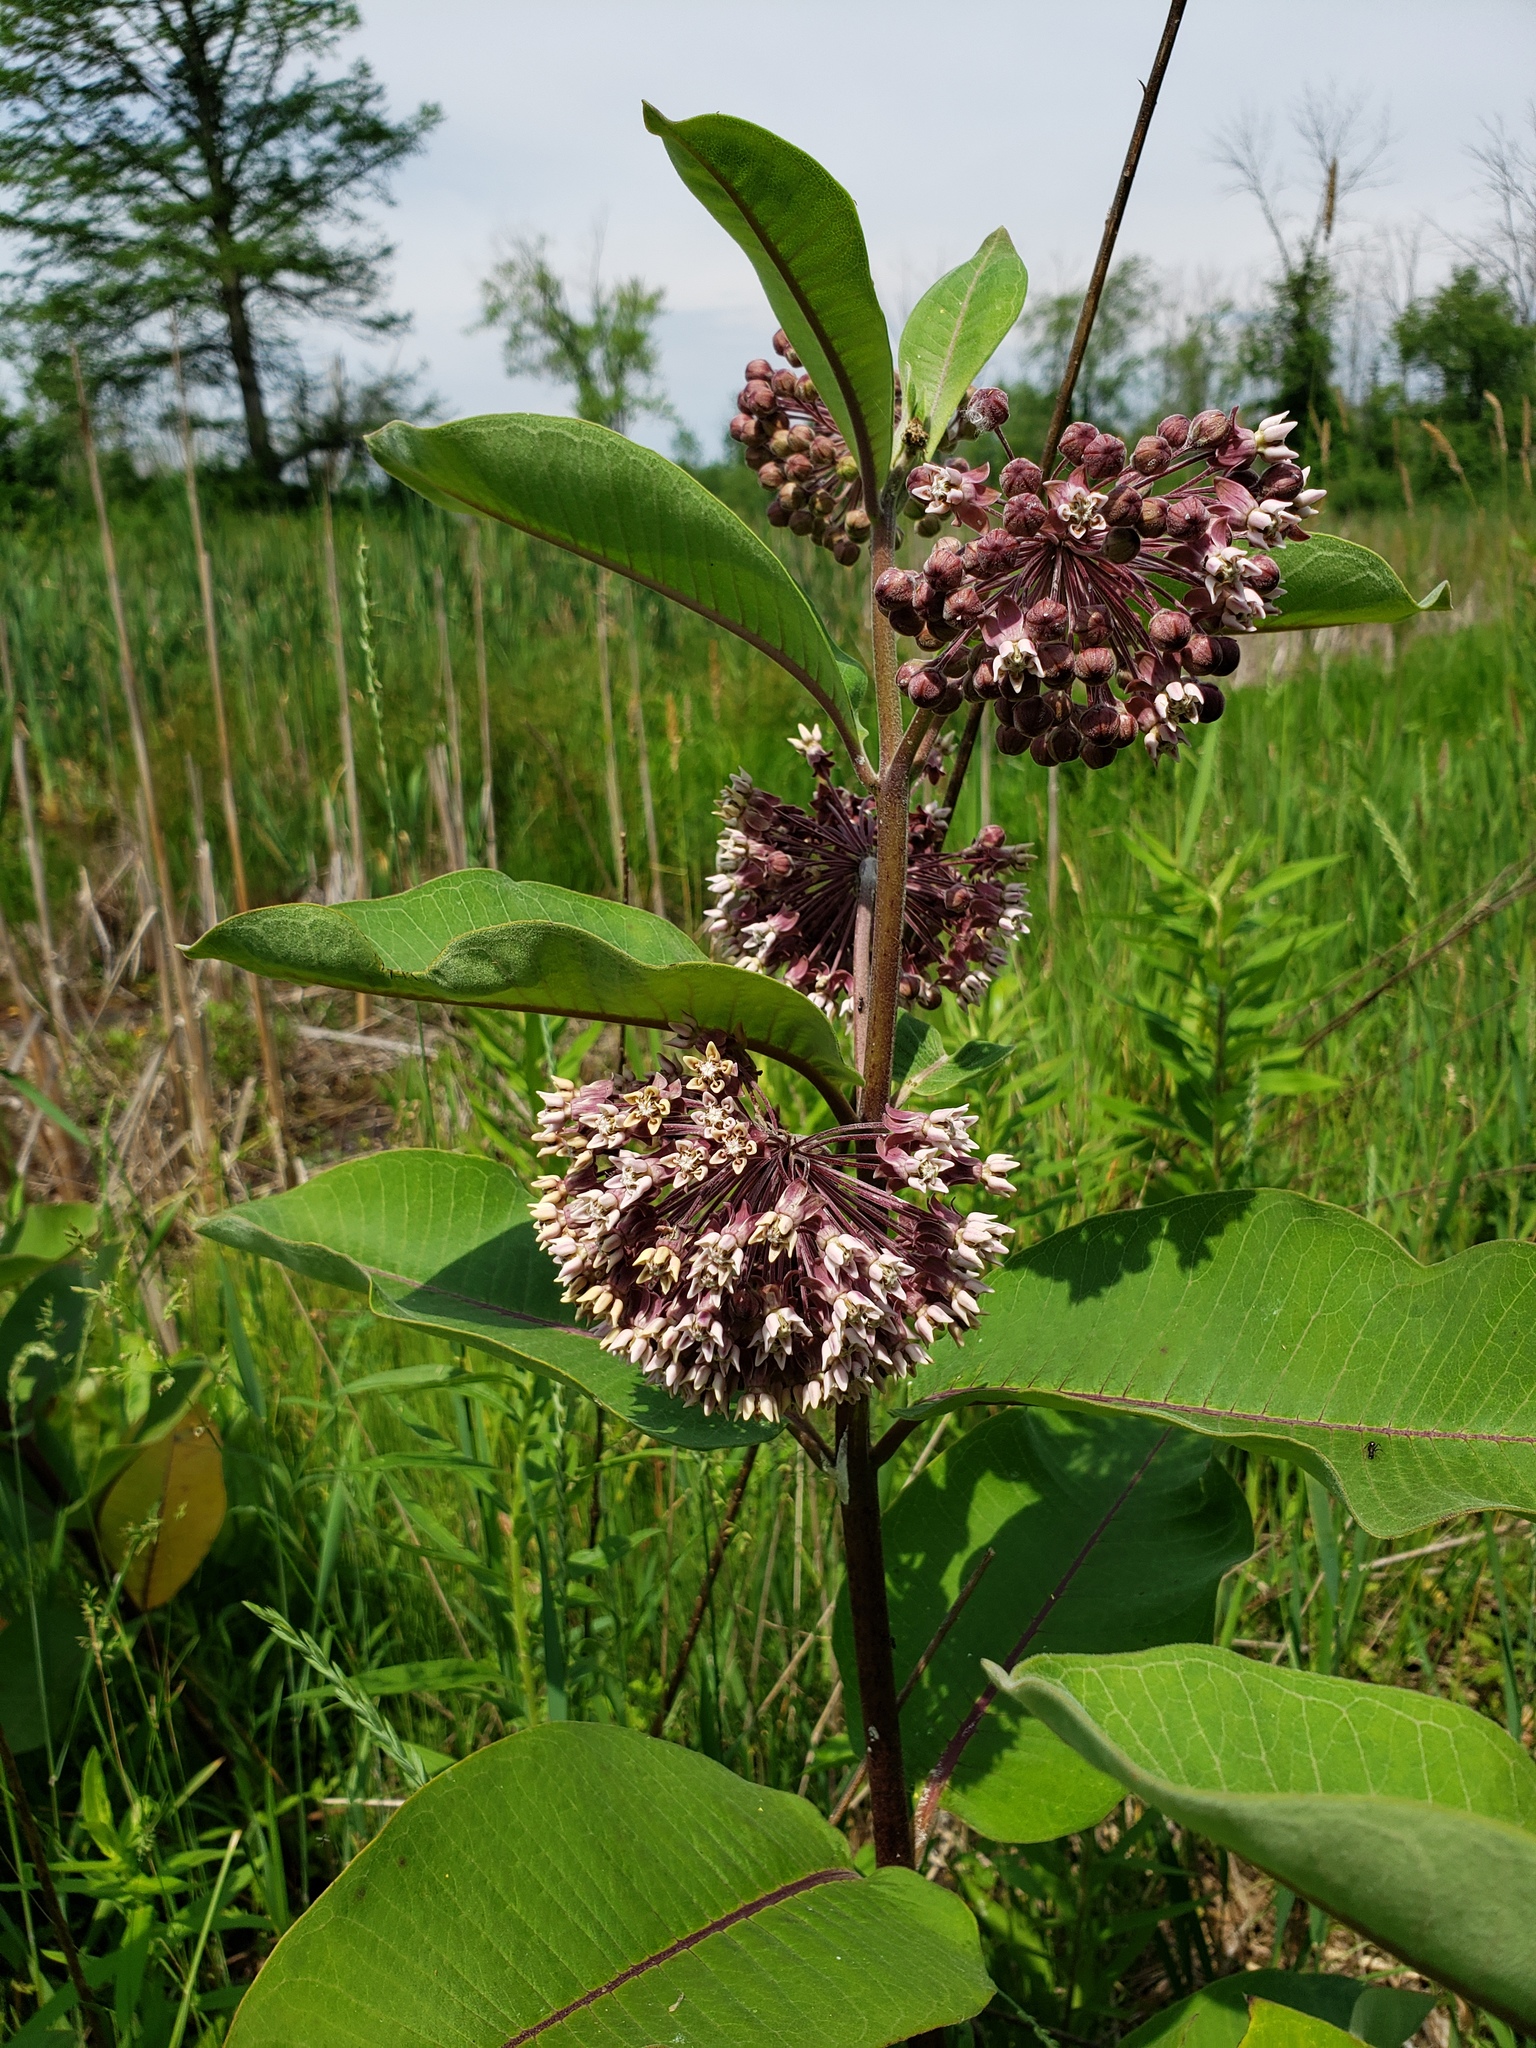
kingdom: Plantae
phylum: Tracheophyta
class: Magnoliopsida
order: Gentianales
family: Apocynaceae
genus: Asclepias
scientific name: Asclepias syriaca
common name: Common milkweed
